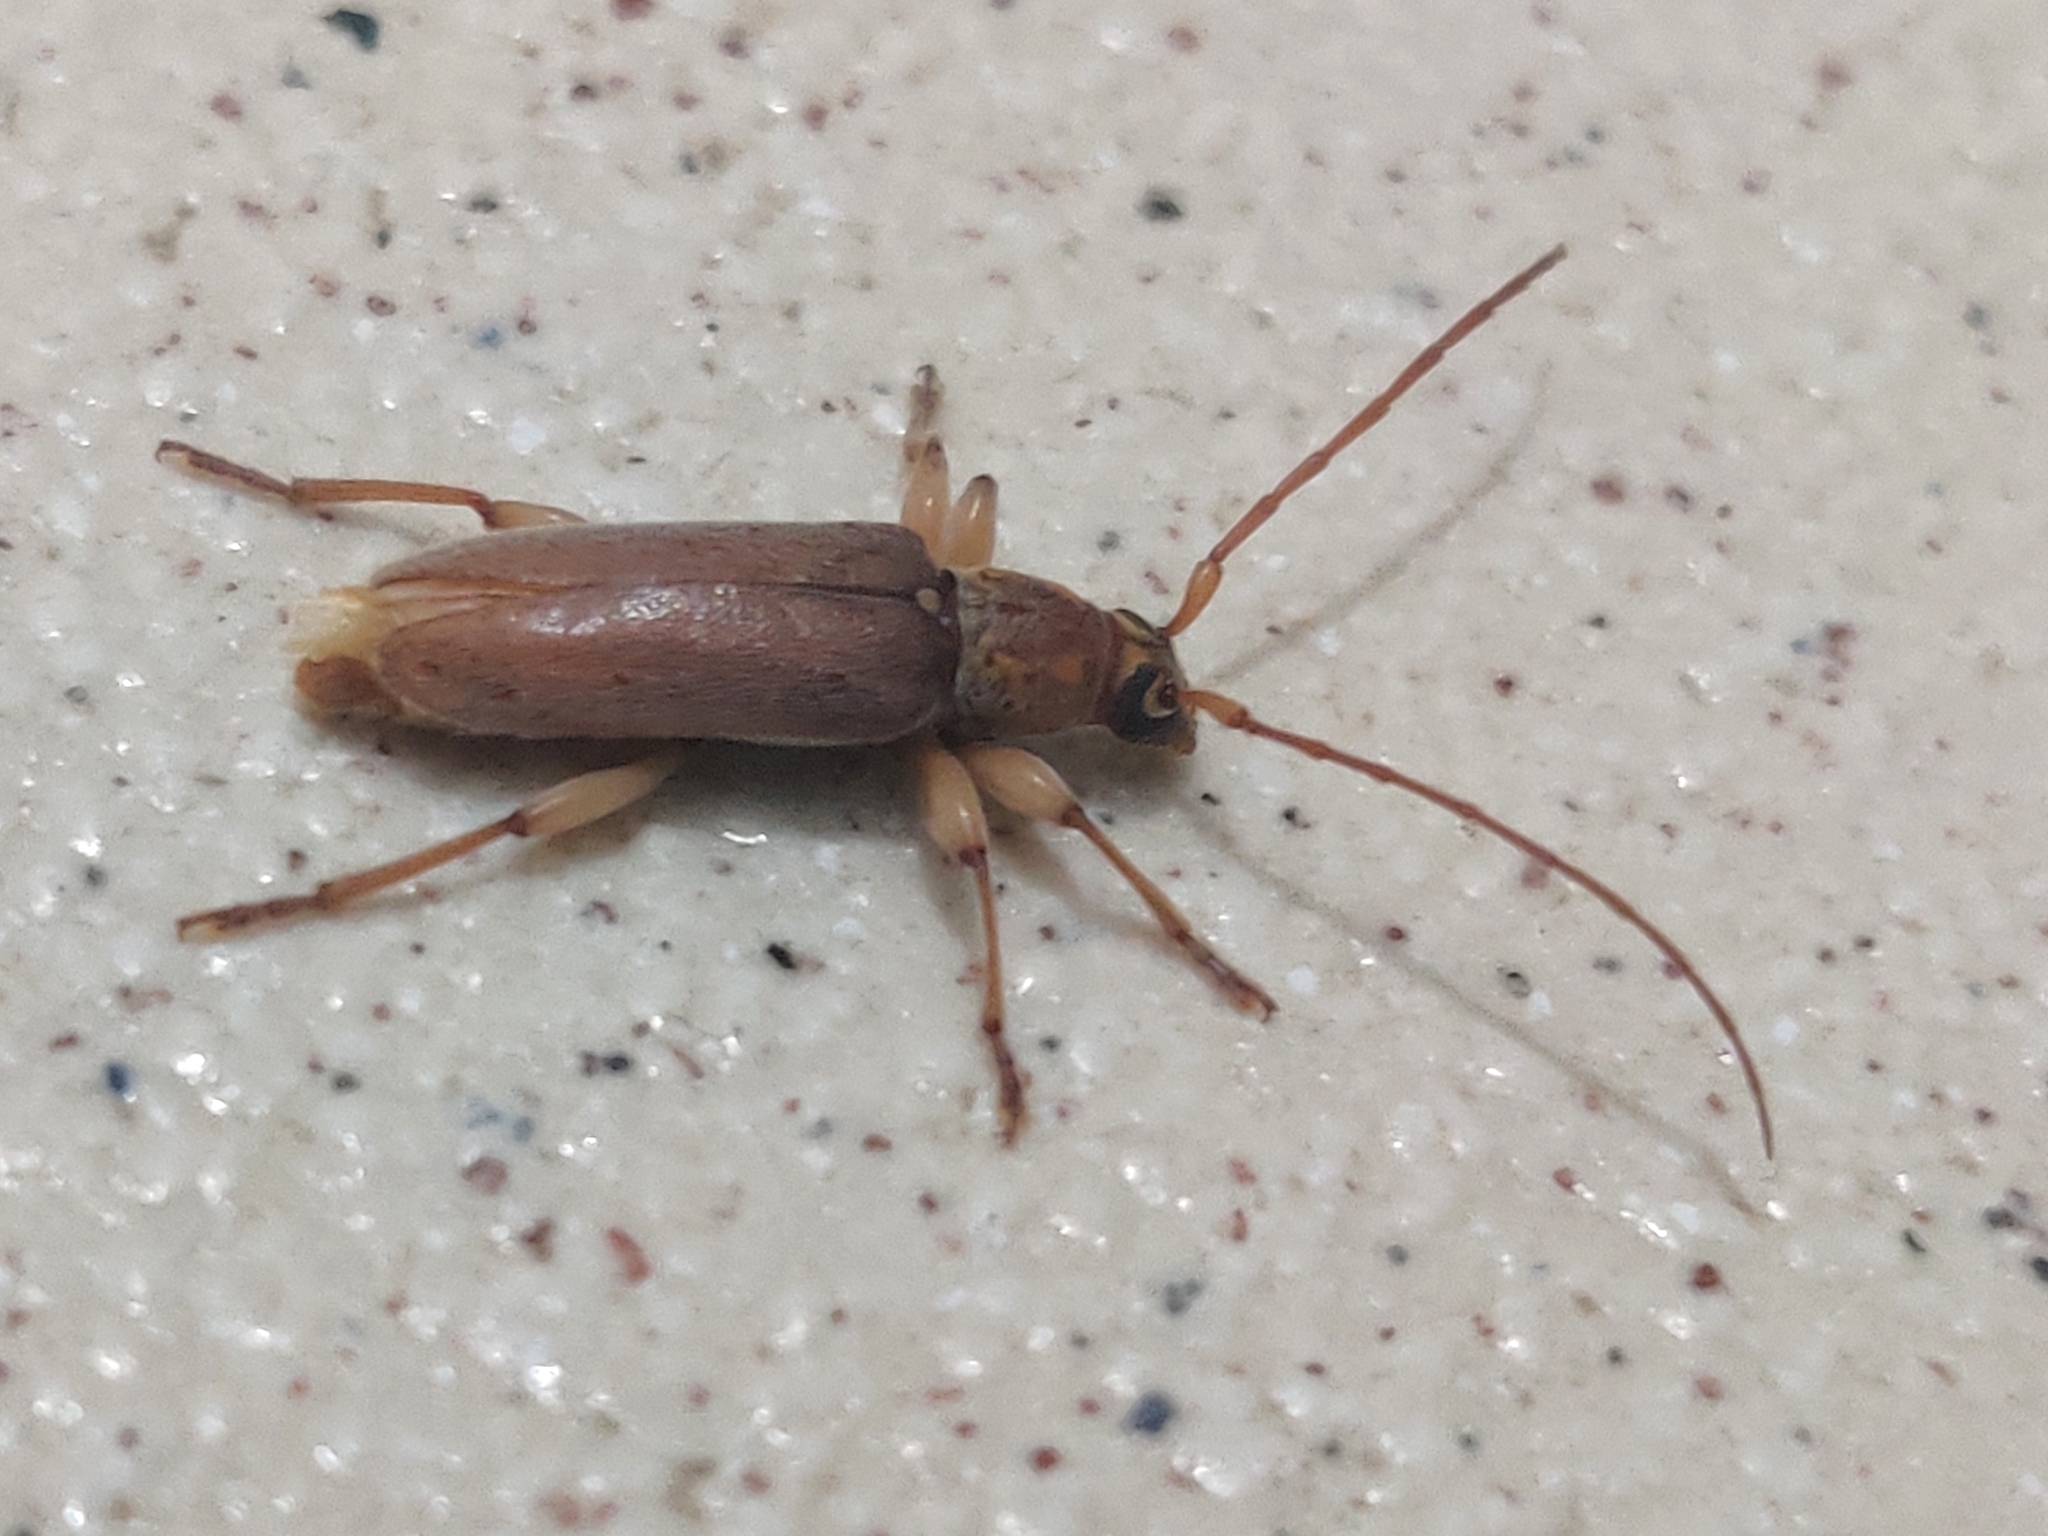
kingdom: Animalia
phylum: Arthropoda
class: Insecta
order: Coleoptera
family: Cerambycidae
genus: Ceresium
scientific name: Ceresium unicolor
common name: Citrus longhorn
